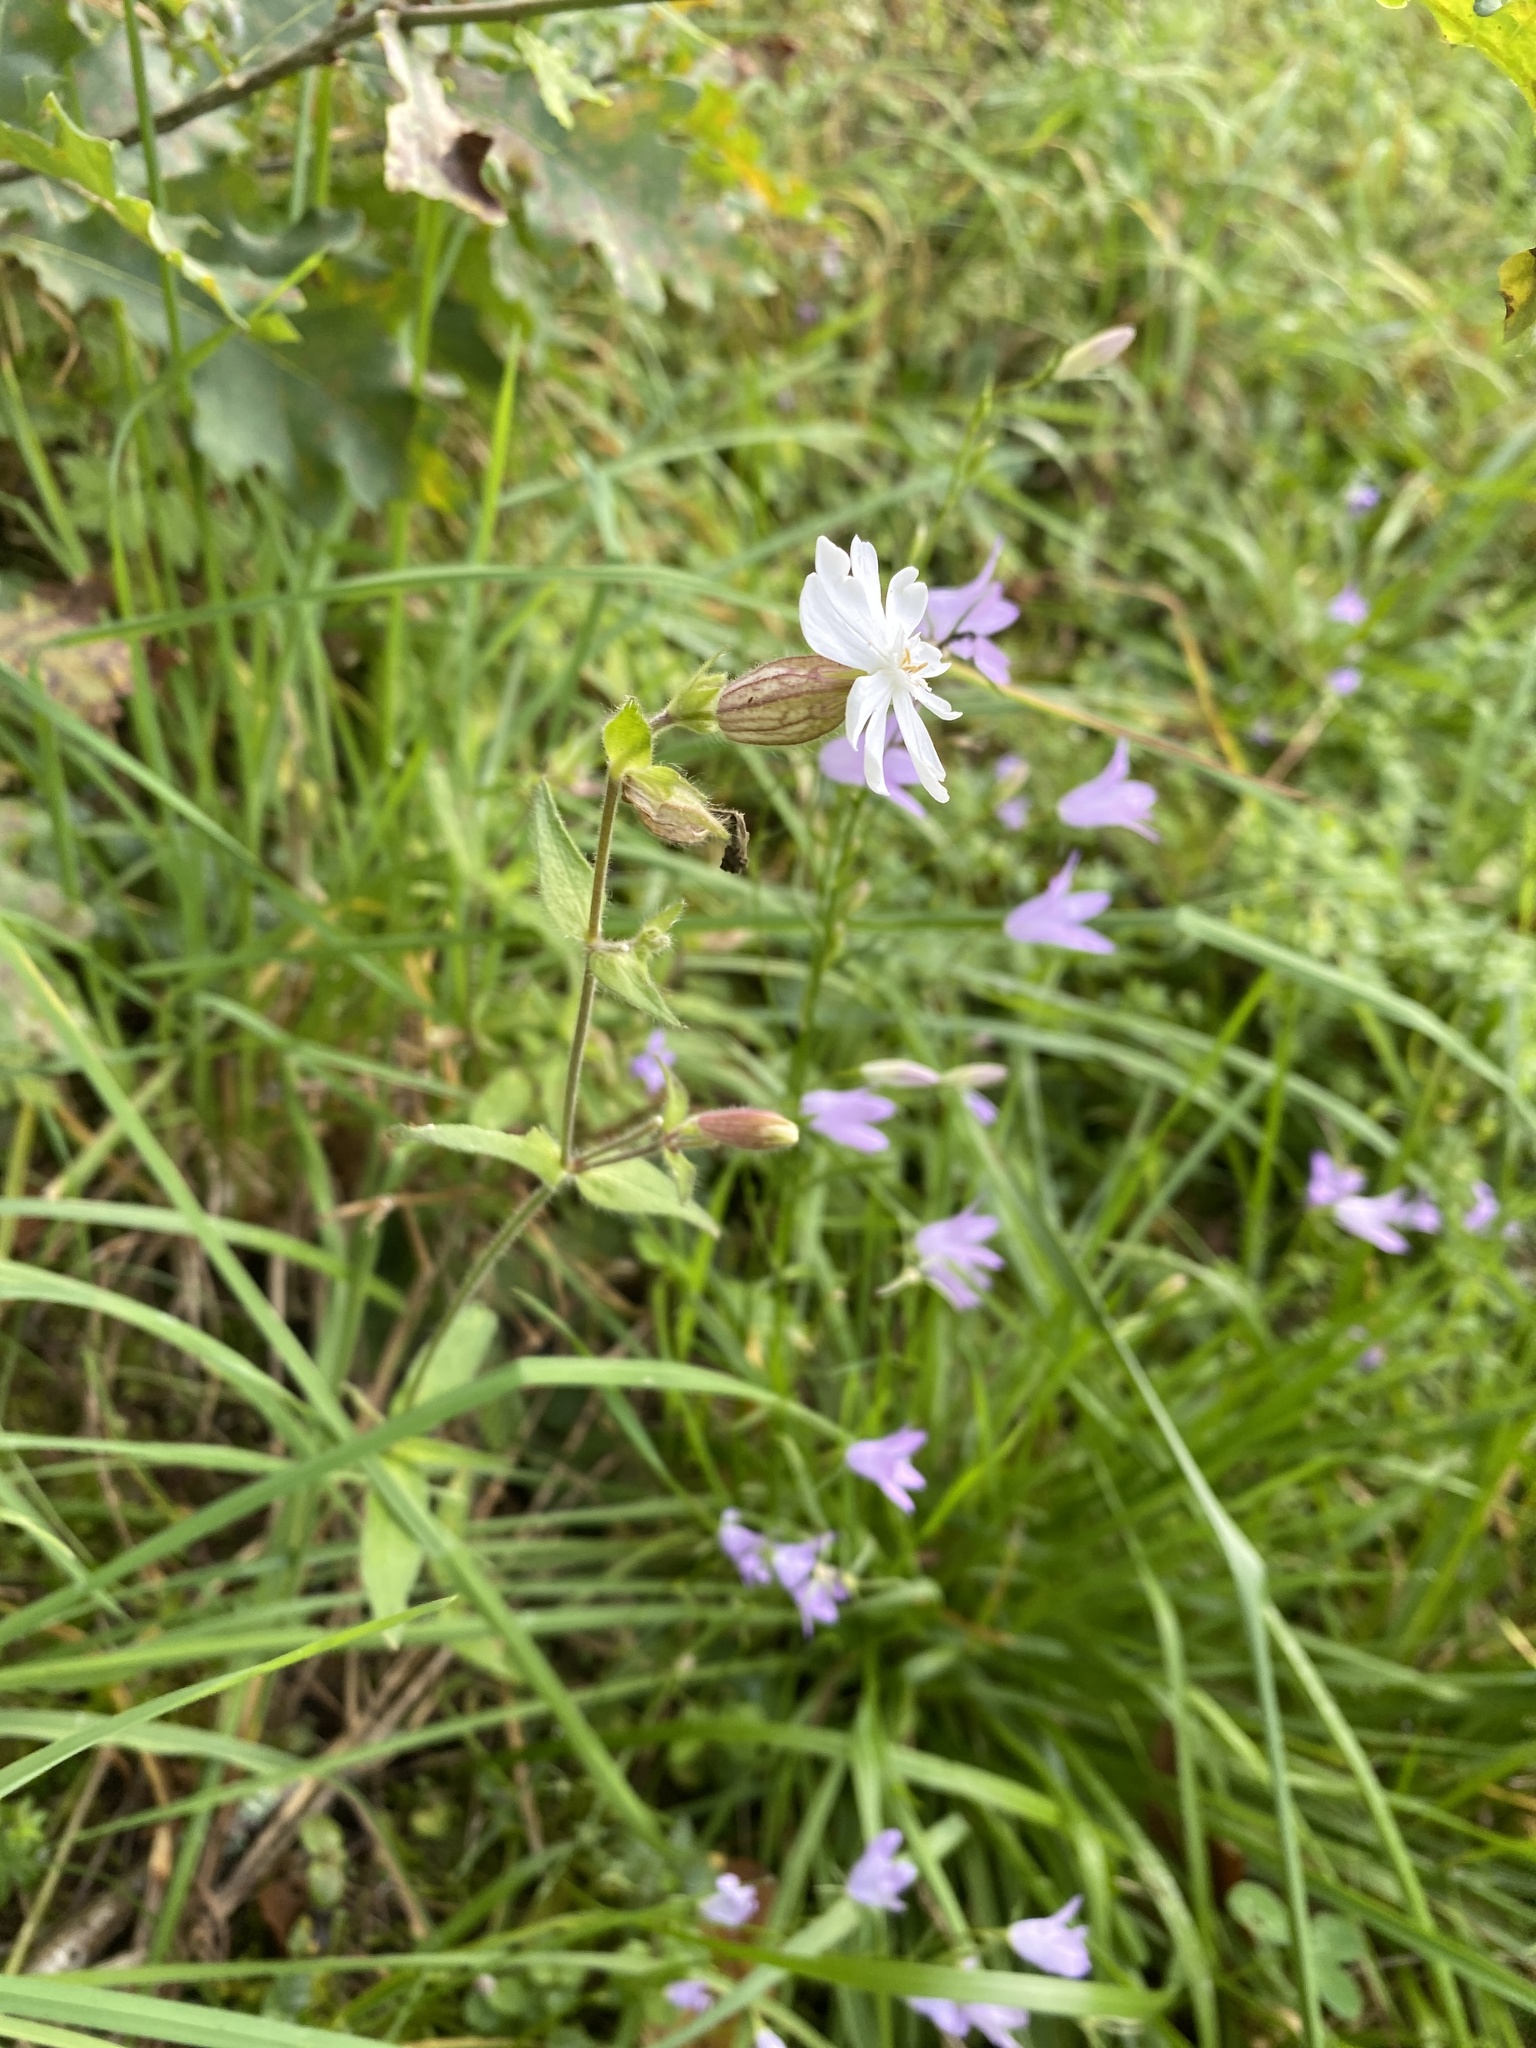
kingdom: Plantae
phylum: Tracheophyta
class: Magnoliopsida
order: Caryophyllales
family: Caryophyllaceae
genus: Silene
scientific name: Silene latifolia
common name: White campion
